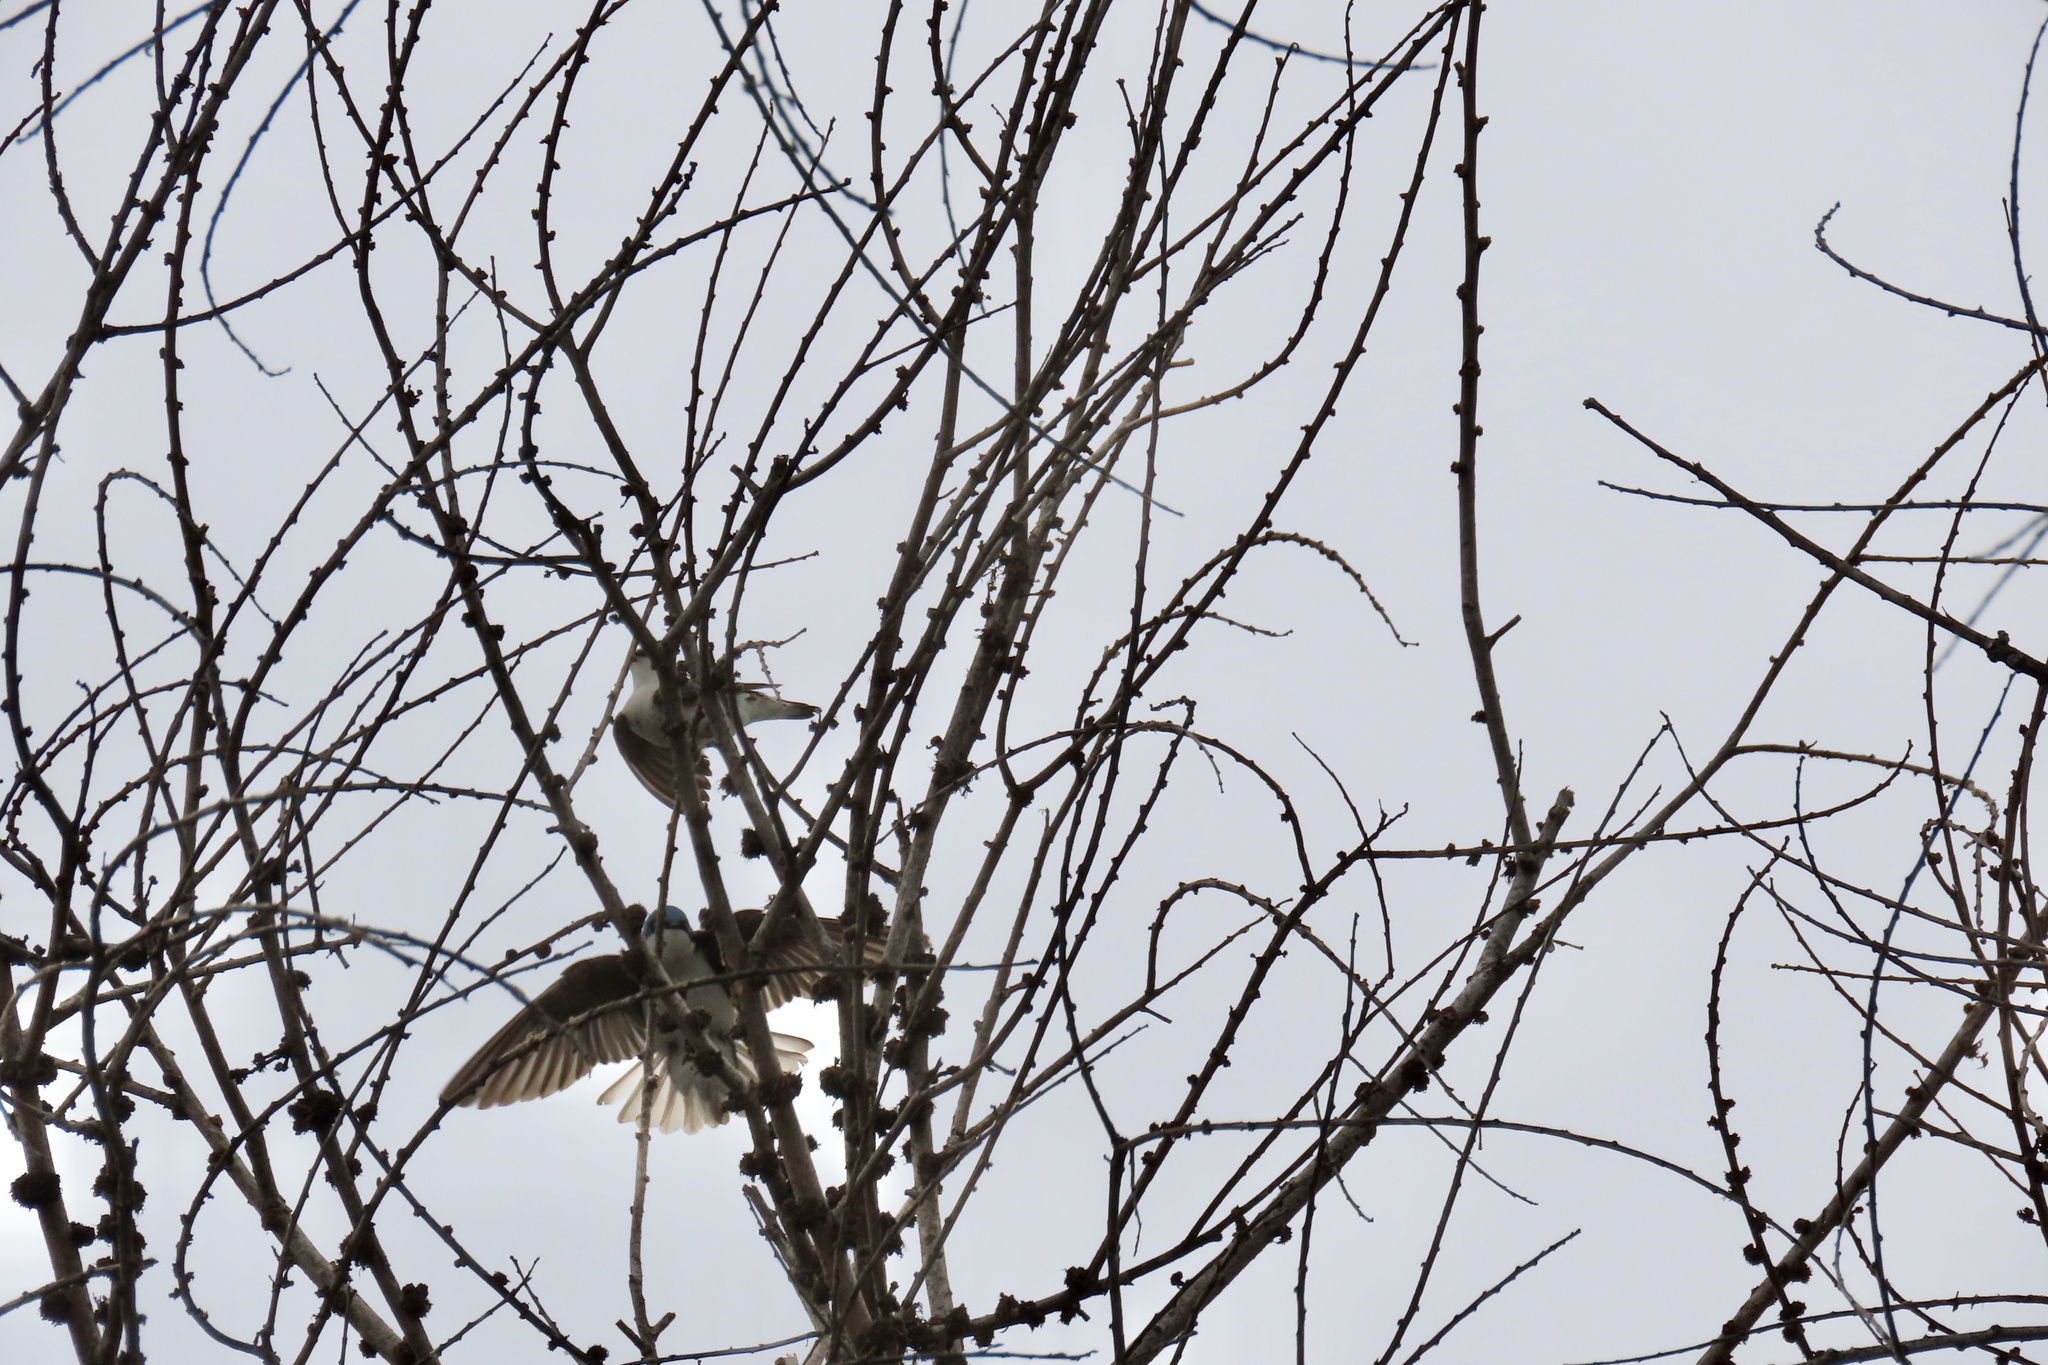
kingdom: Animalia
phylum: Chordata
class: Aves
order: Passeriformes
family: Hirundinidae
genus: Tachycineta
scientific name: Tachycineta bicolor
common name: Tree swallow
